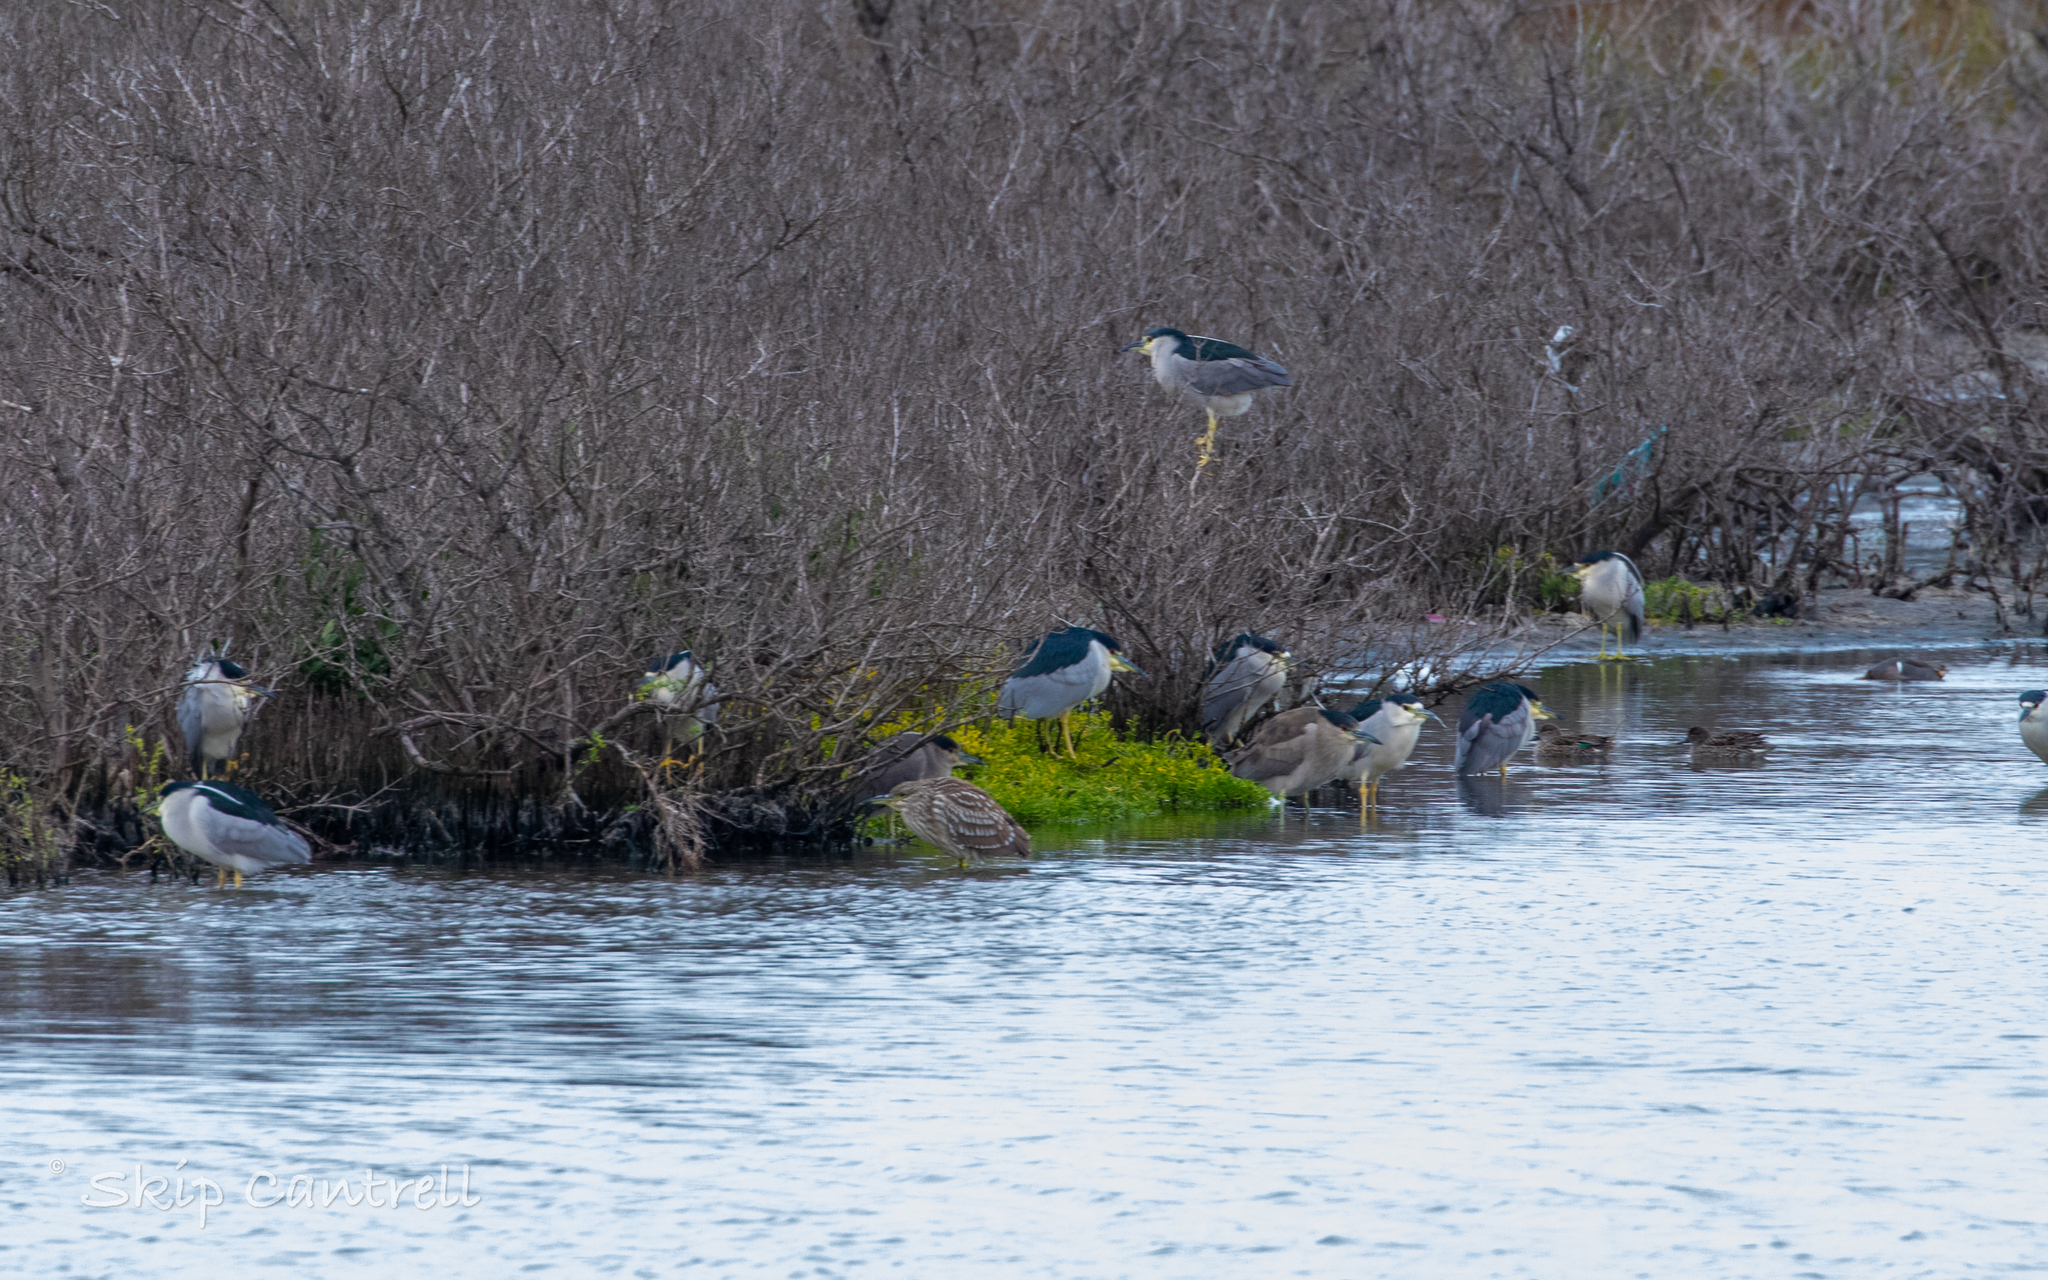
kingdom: Animalia
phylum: Chordata
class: Aves
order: Pelecaniformes
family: Ardeidae
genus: Nycticorax
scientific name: Nycticorax nycticorax
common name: Black-crowned night heron
